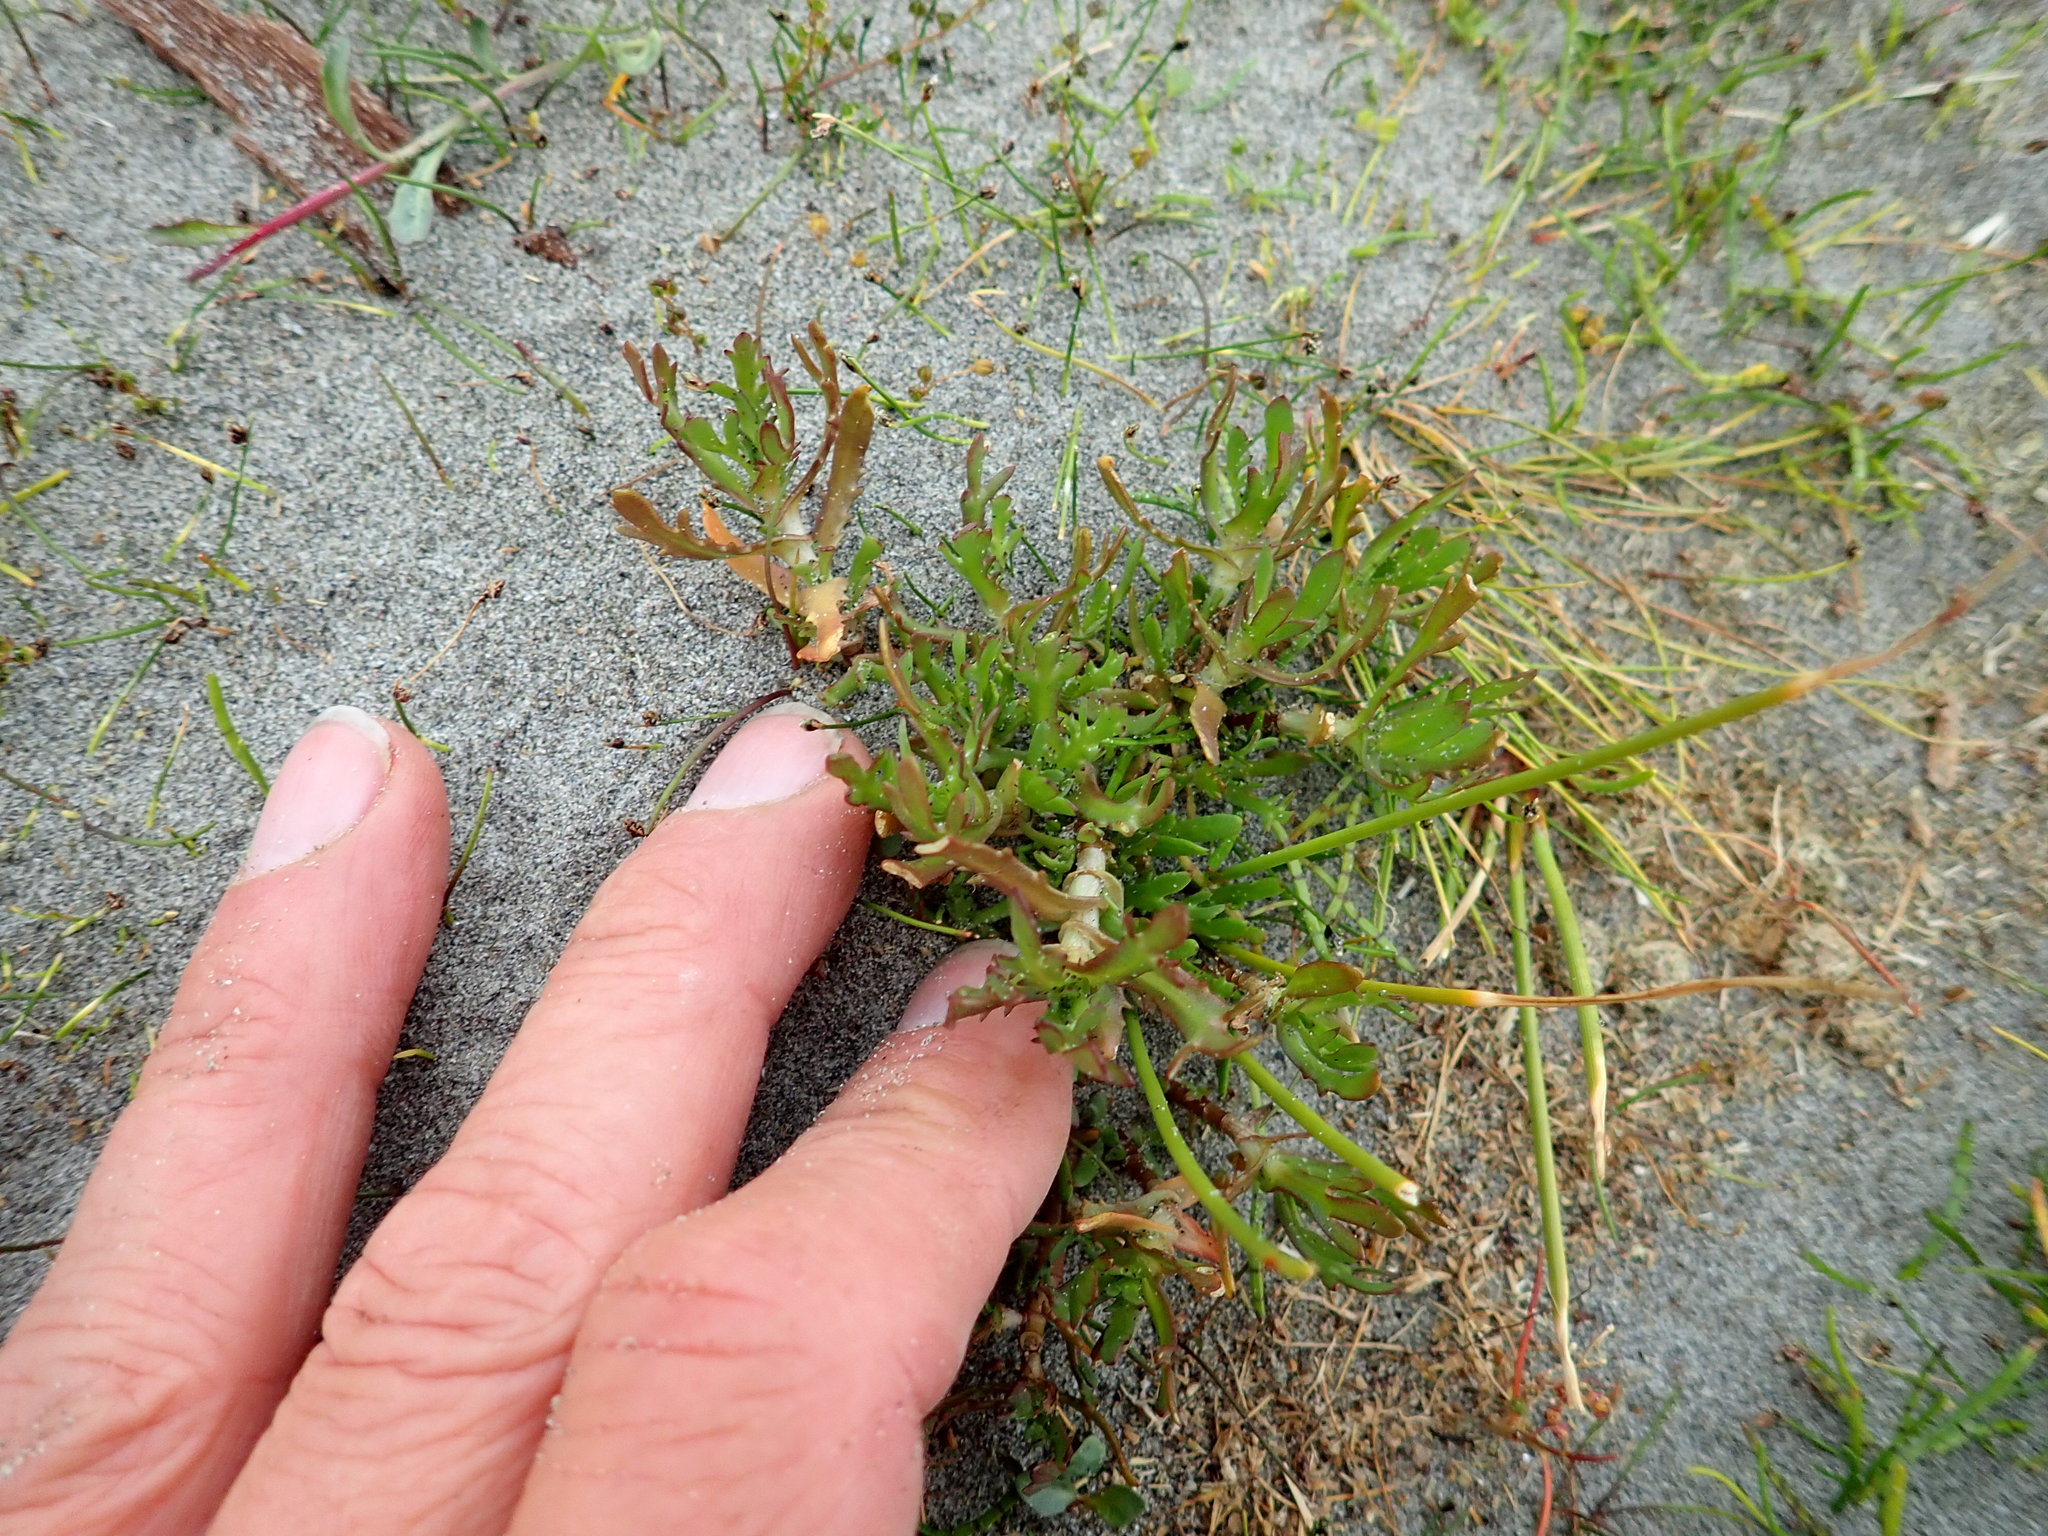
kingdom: Plantae
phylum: Tracheophyta
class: Magnoliopsida
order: Asterales
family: Asteraceae
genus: Cotula
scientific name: Cotula coronopifolia
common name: Buttonweed
